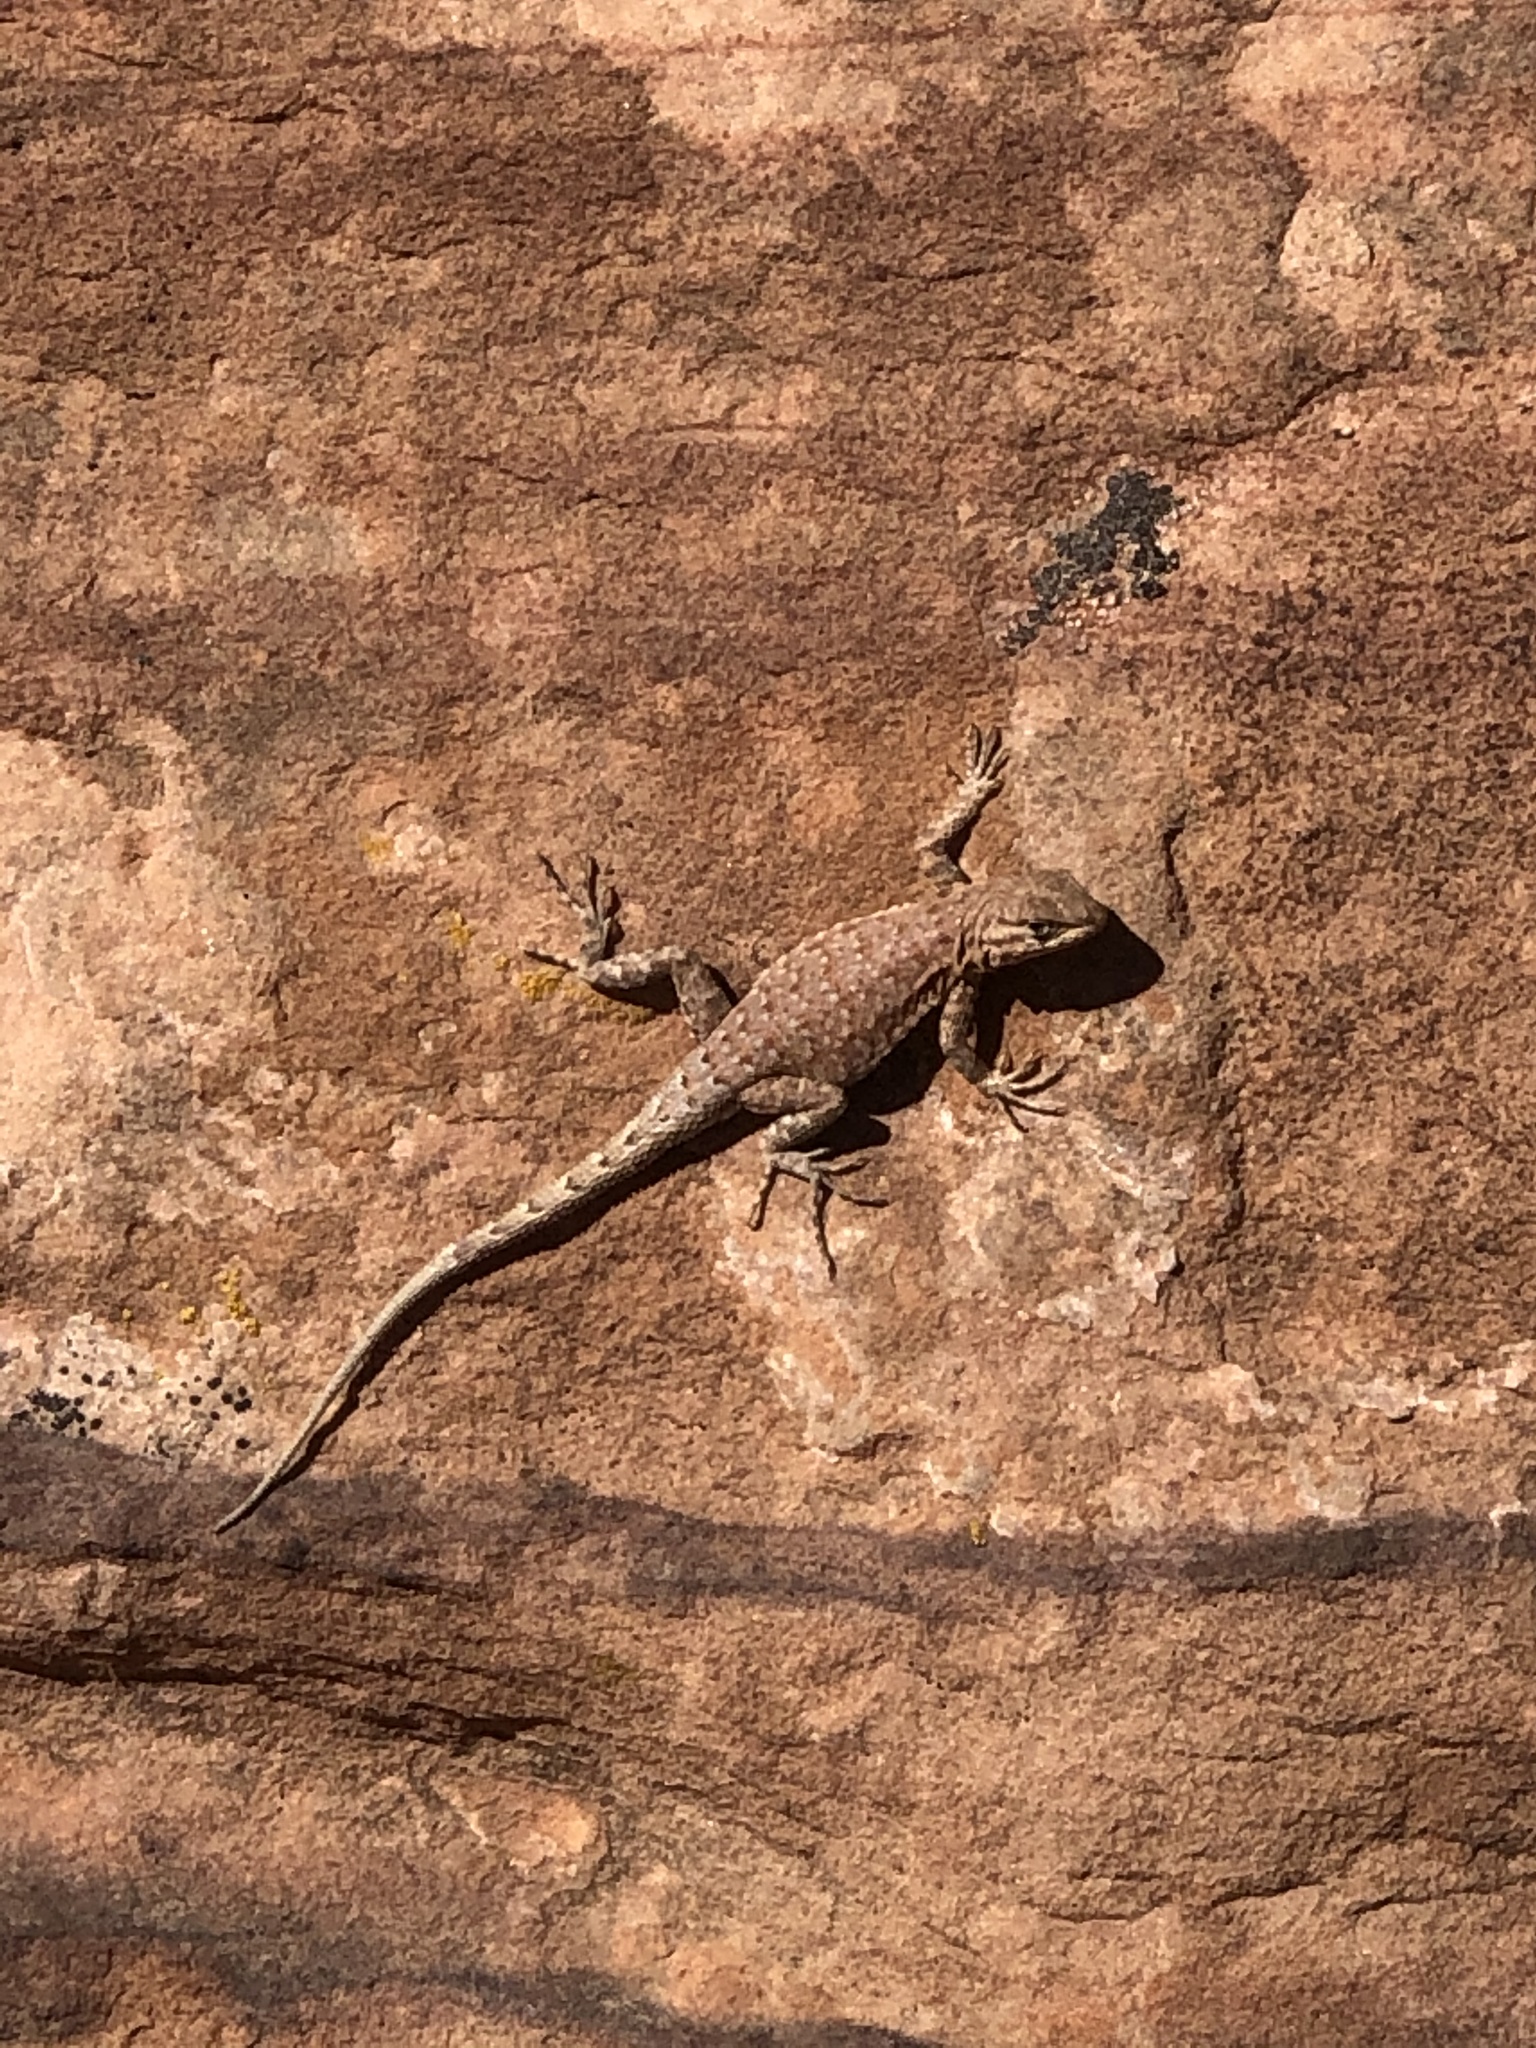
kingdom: Animalia
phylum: Chordata
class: Squamata
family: Phrynosomatidae
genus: Uta
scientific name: Uta stansburiana
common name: Side-blotched lizard
